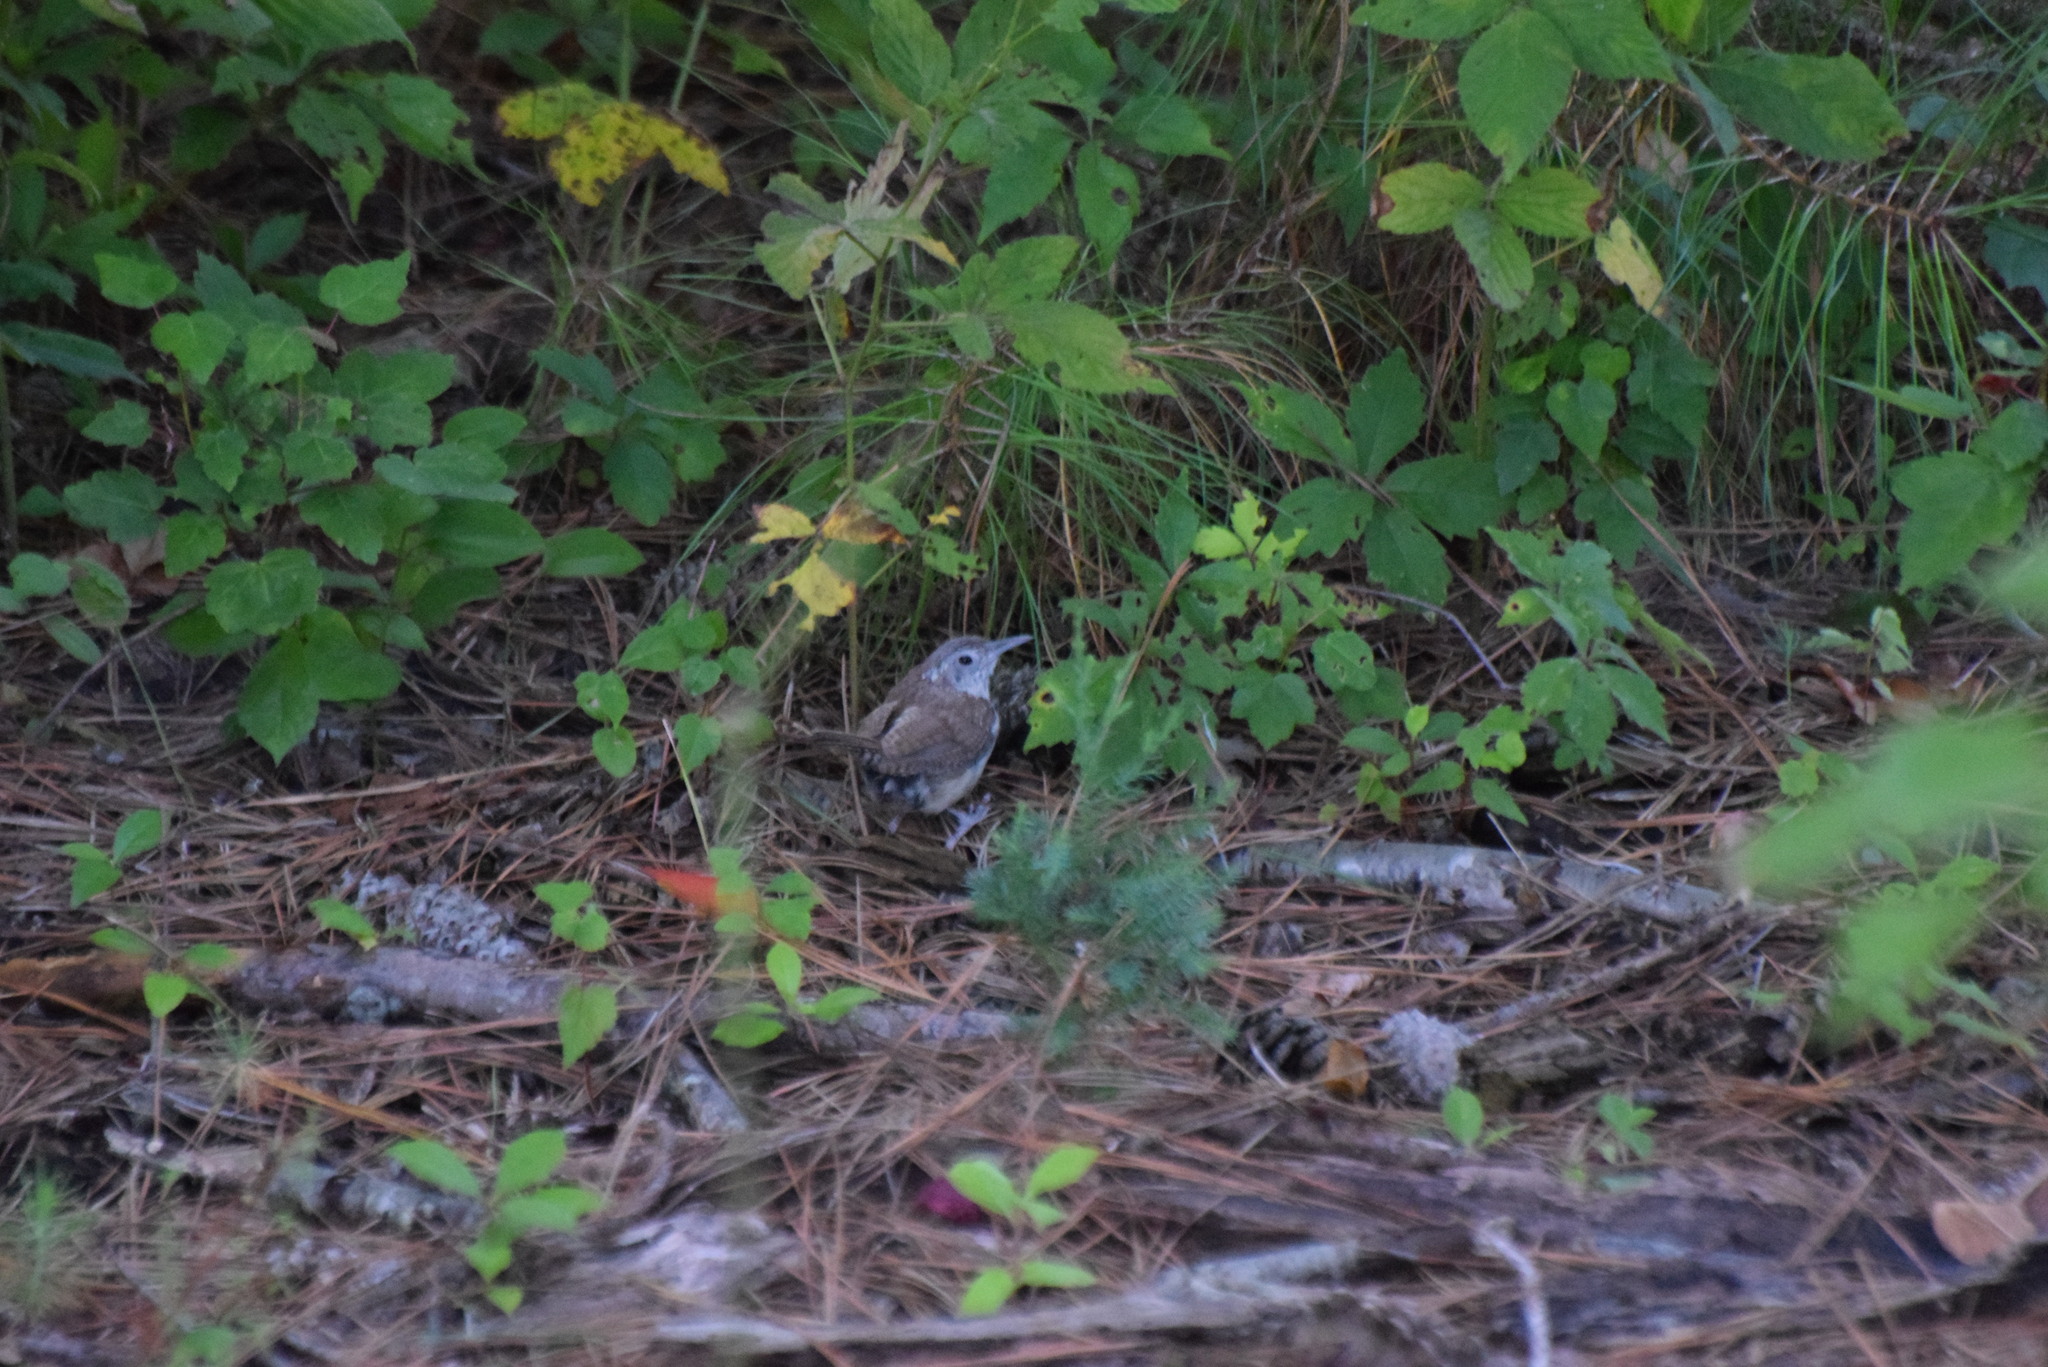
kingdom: Animalia
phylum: Chordata
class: Aves
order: Passeriformes
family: Troglodytidae
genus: Thryothorus
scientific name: Thryothorus ludovicianus
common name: Carolina wren
